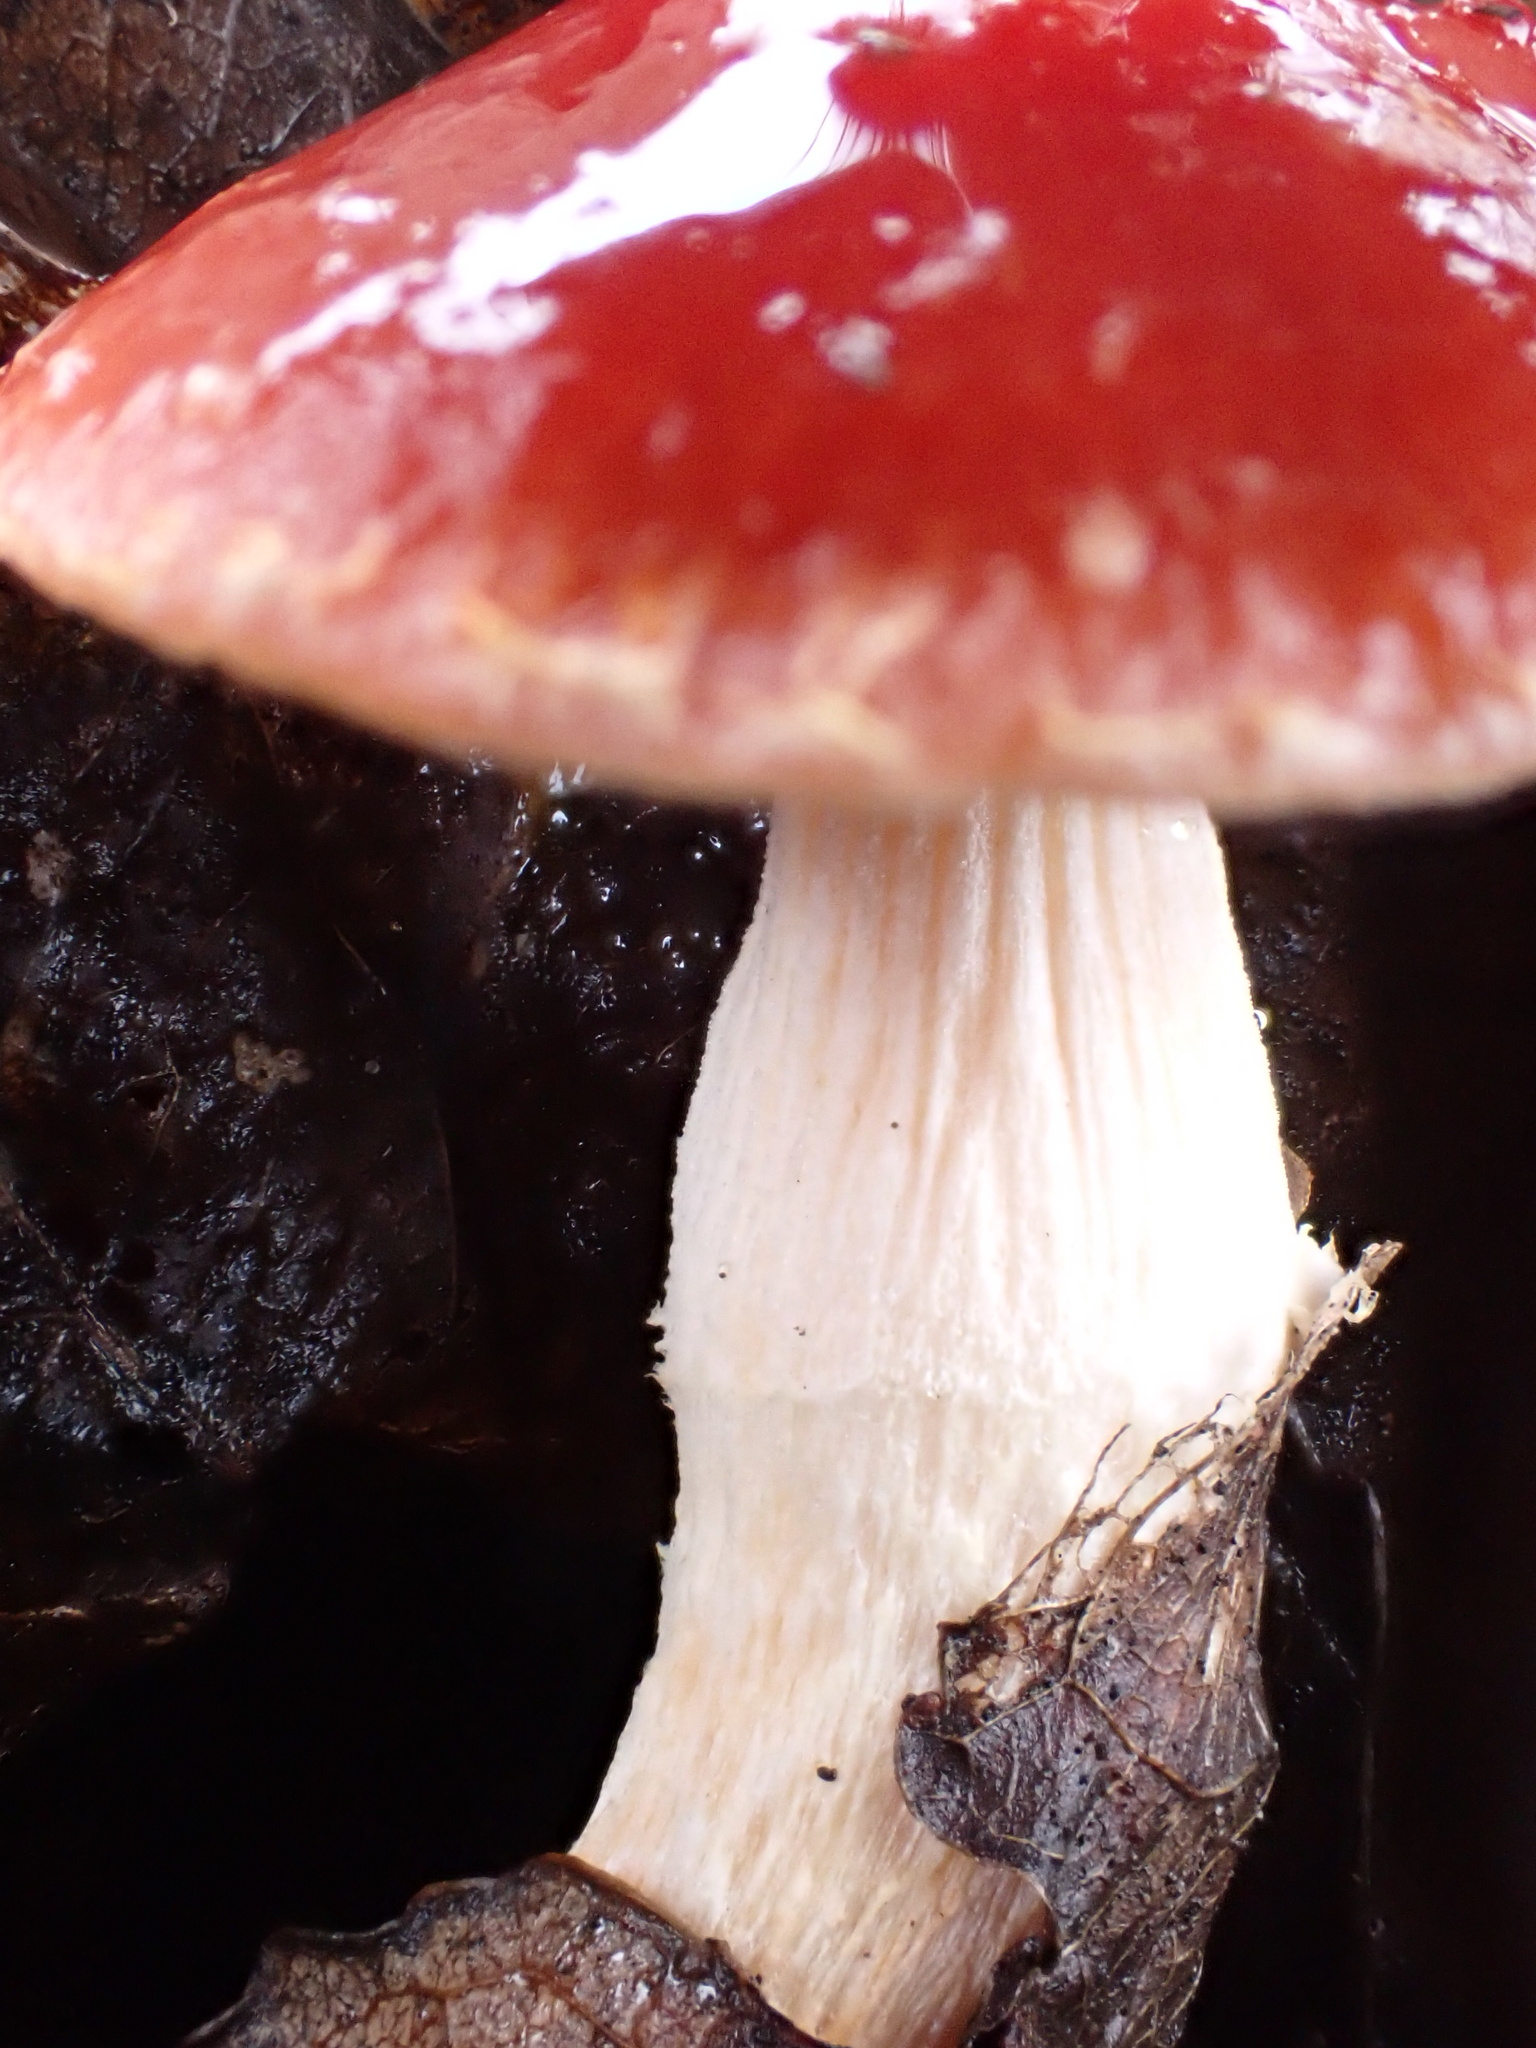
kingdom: Fungi
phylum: Basidiomycota
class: Agaricomycetes
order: Agaricales
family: Strophariaceae
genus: Leratiomyces
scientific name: Leratiomyces ceres
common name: Redlead roundhead
